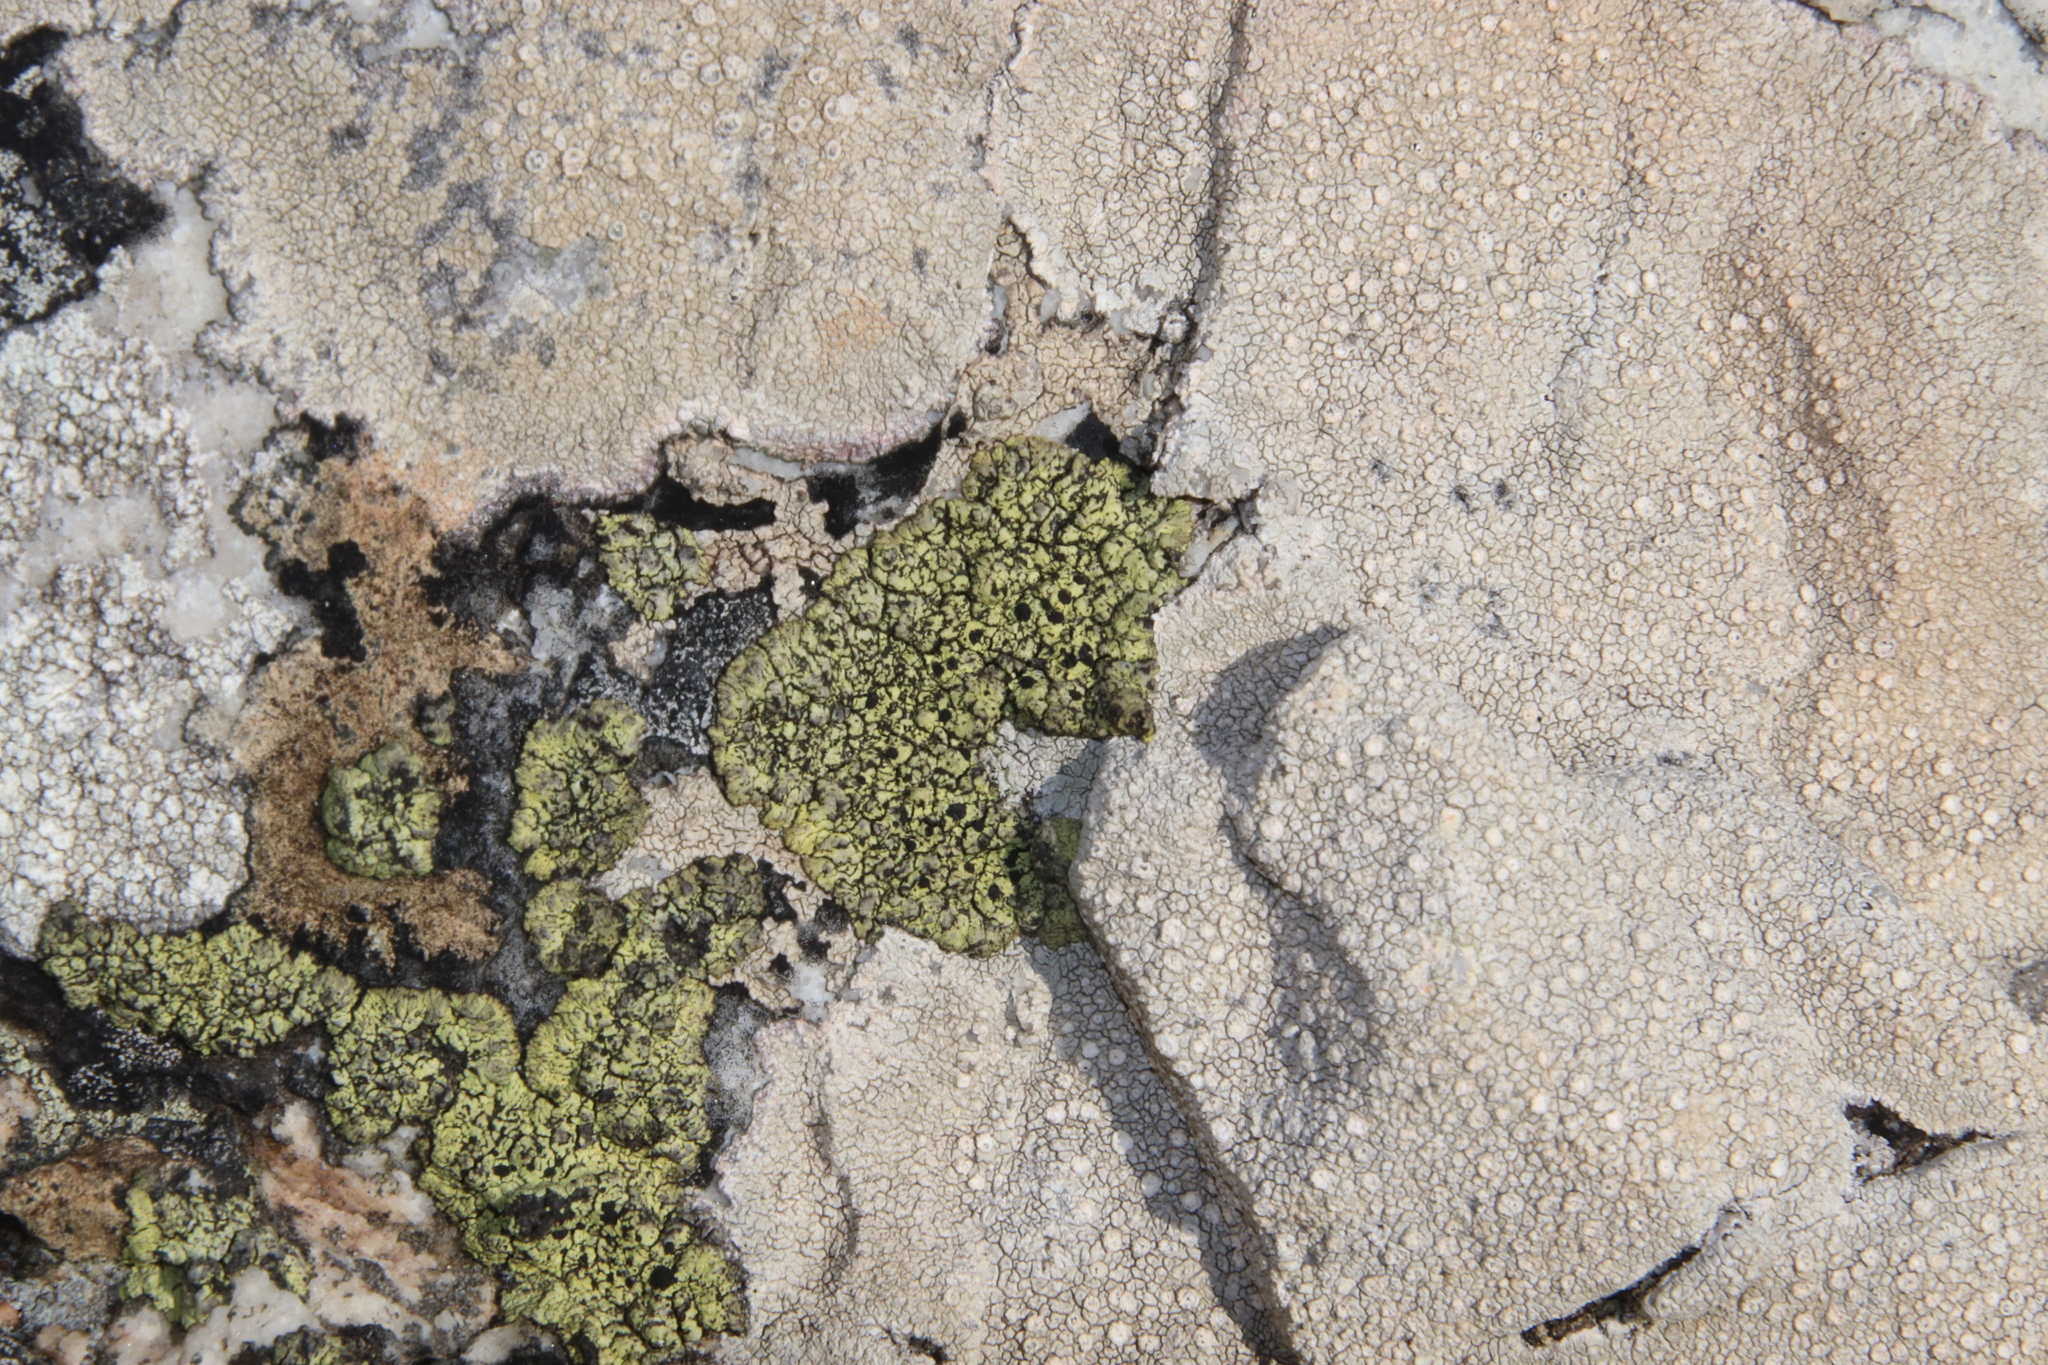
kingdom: Fungi
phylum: Ascomycota
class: Lecanoromycetes
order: Caliciales
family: Caliciaceae
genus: Diploicia
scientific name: Diploicia africana
